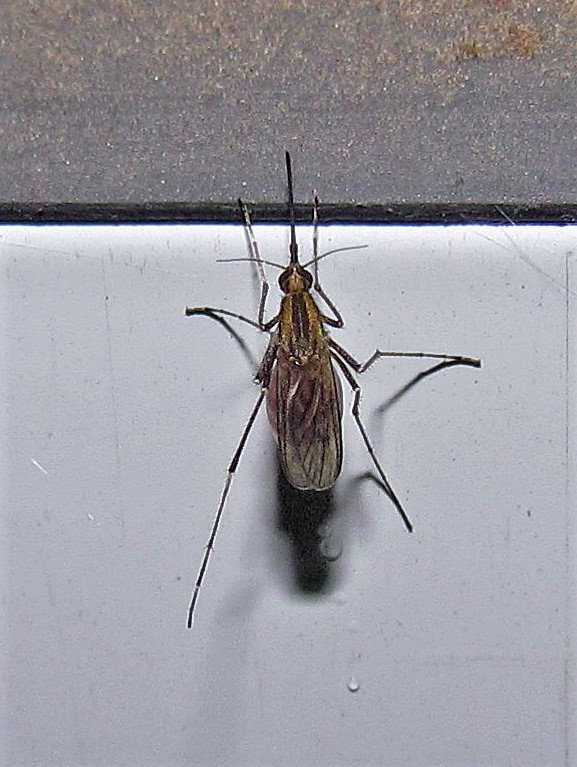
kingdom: Animalia
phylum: Arthropoda
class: Insecta
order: Diptera
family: Culicidae
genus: Aedes
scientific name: Aedes albifasciatus
